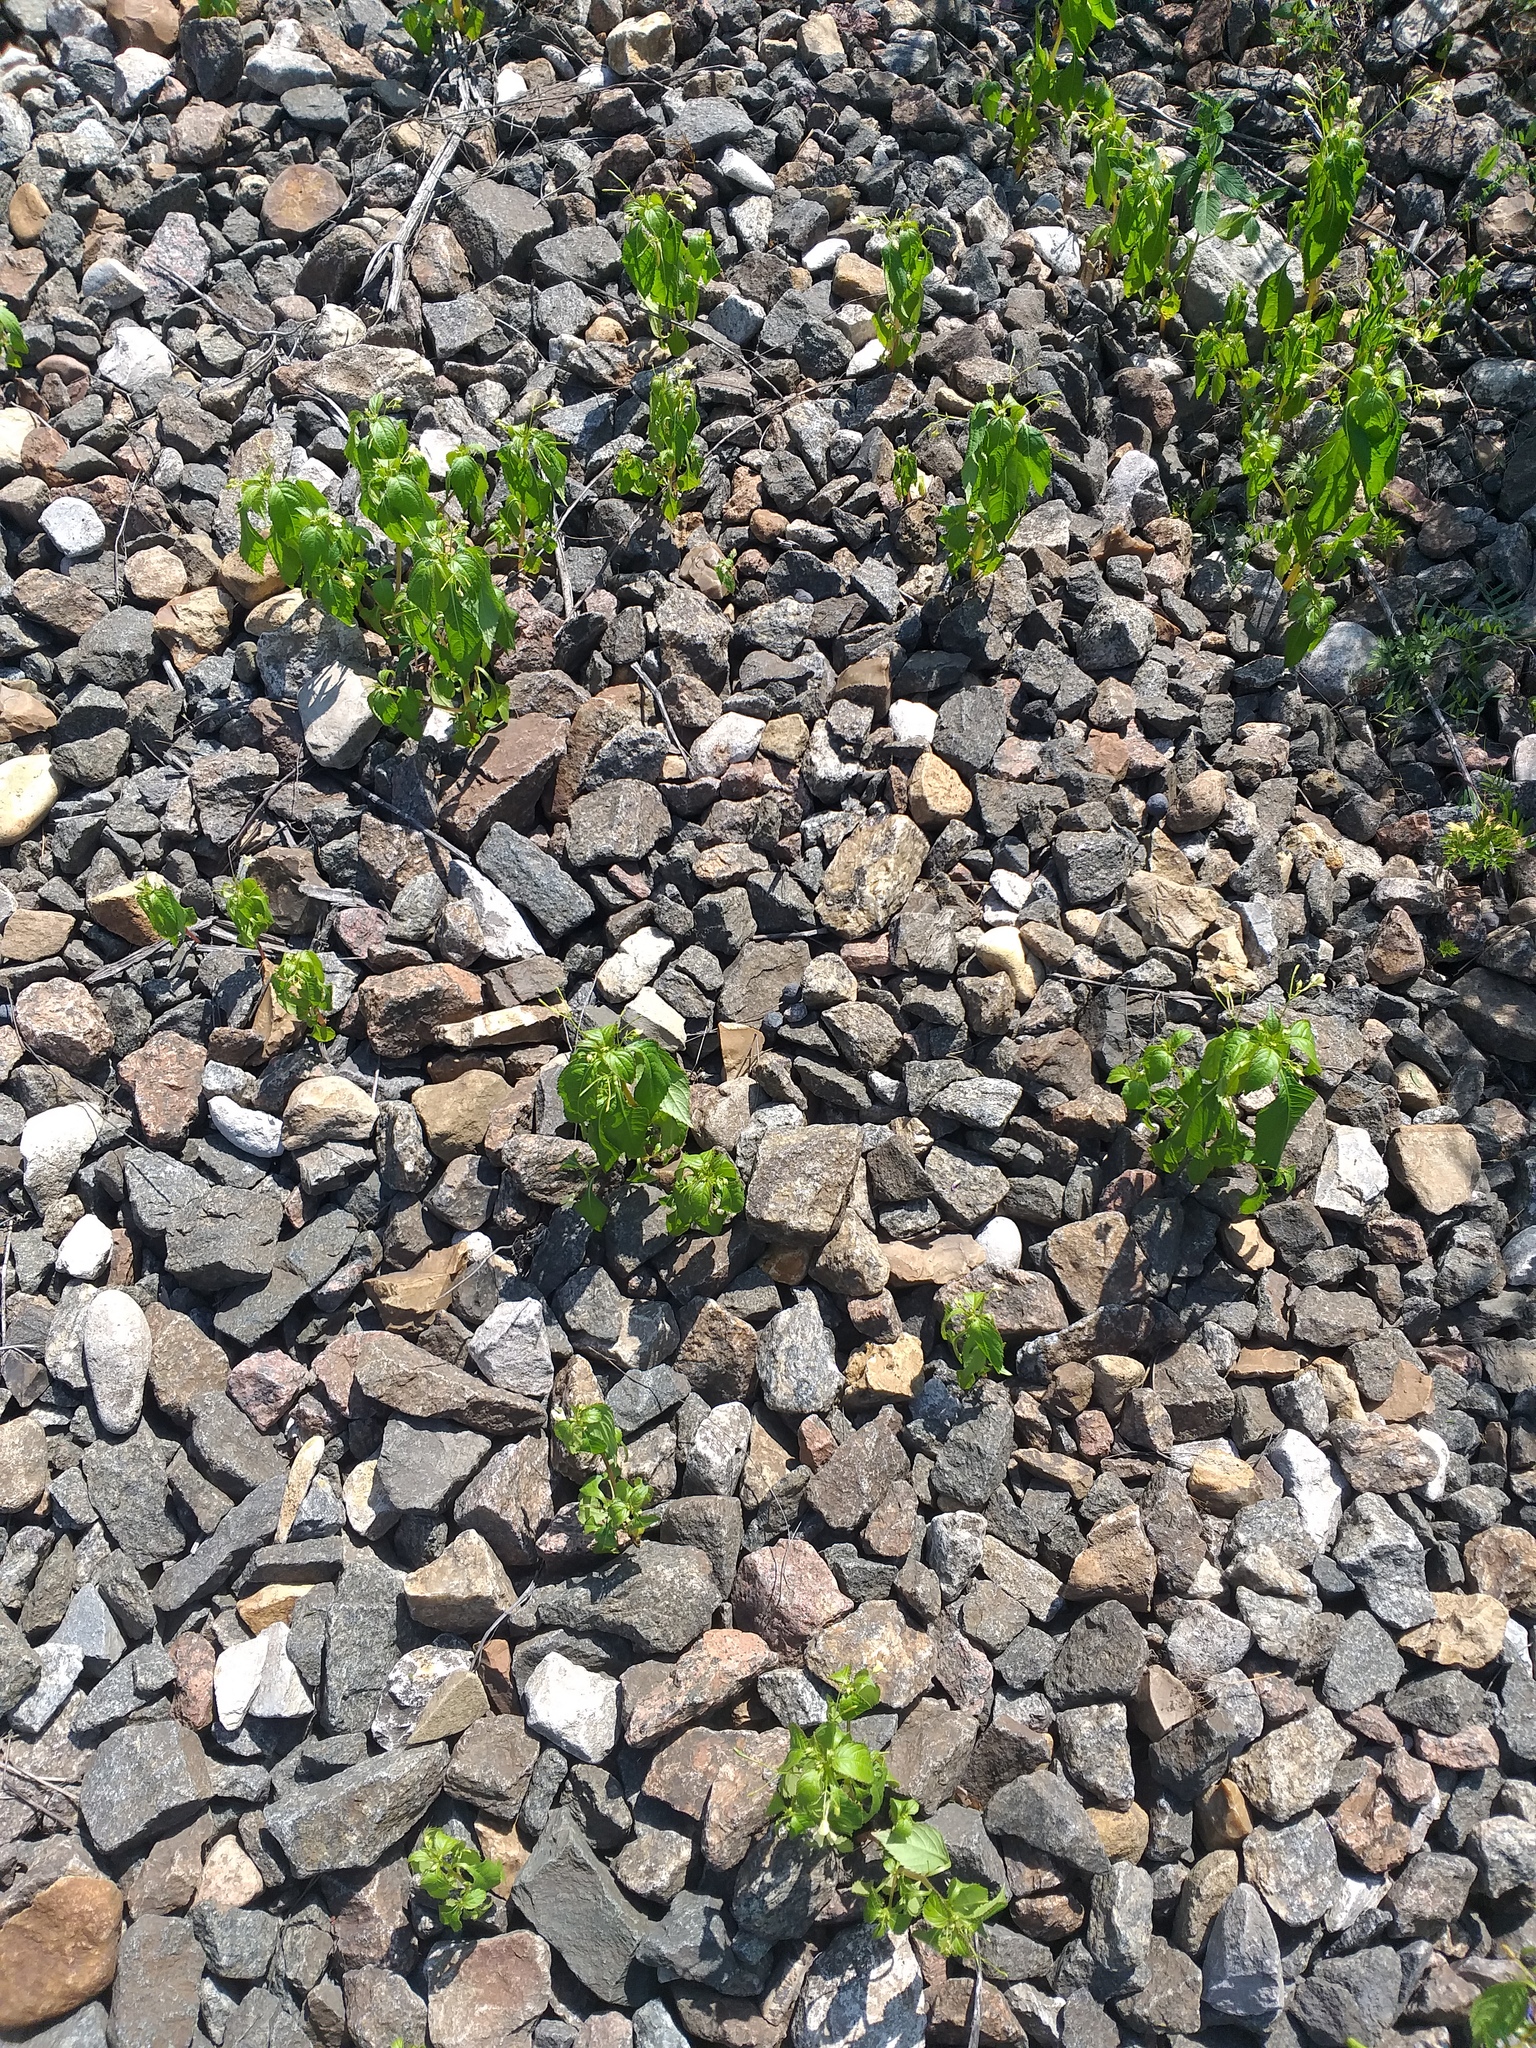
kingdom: Plantae
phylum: Tracheophyta
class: Magnoliopsida
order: Ericales
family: Balsaminaceae
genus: Impatiens
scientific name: Impatiens parviflora
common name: Small balsam
